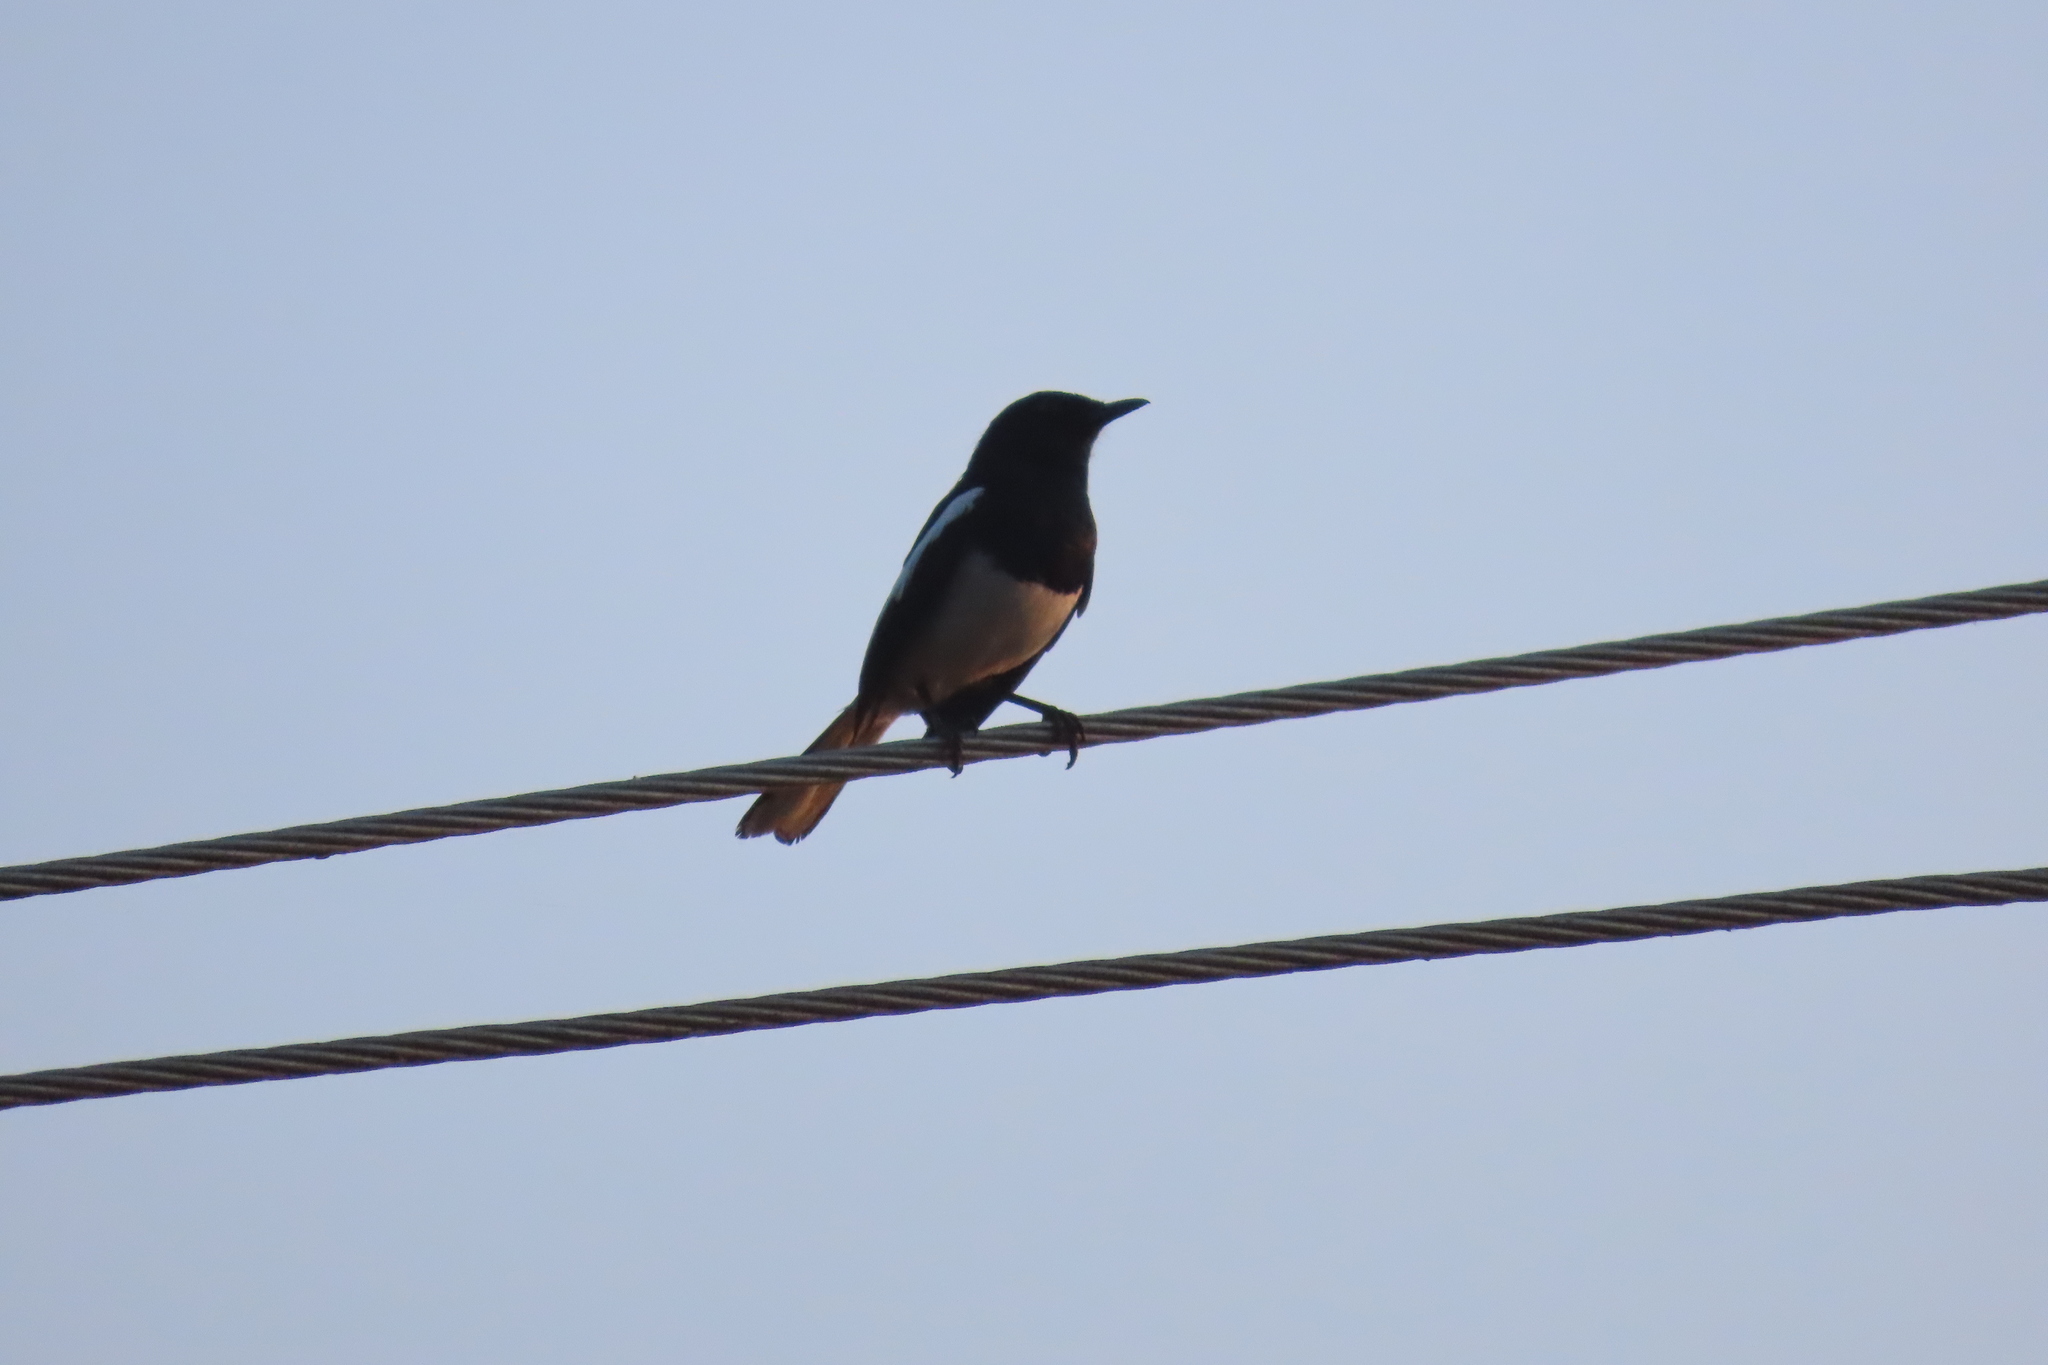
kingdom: Animalia
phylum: Chordata
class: Aves
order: Passeriformes
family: Muscicapidae
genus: Copsychus
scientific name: Copsychus saularis
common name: Oriental magpie-robin
